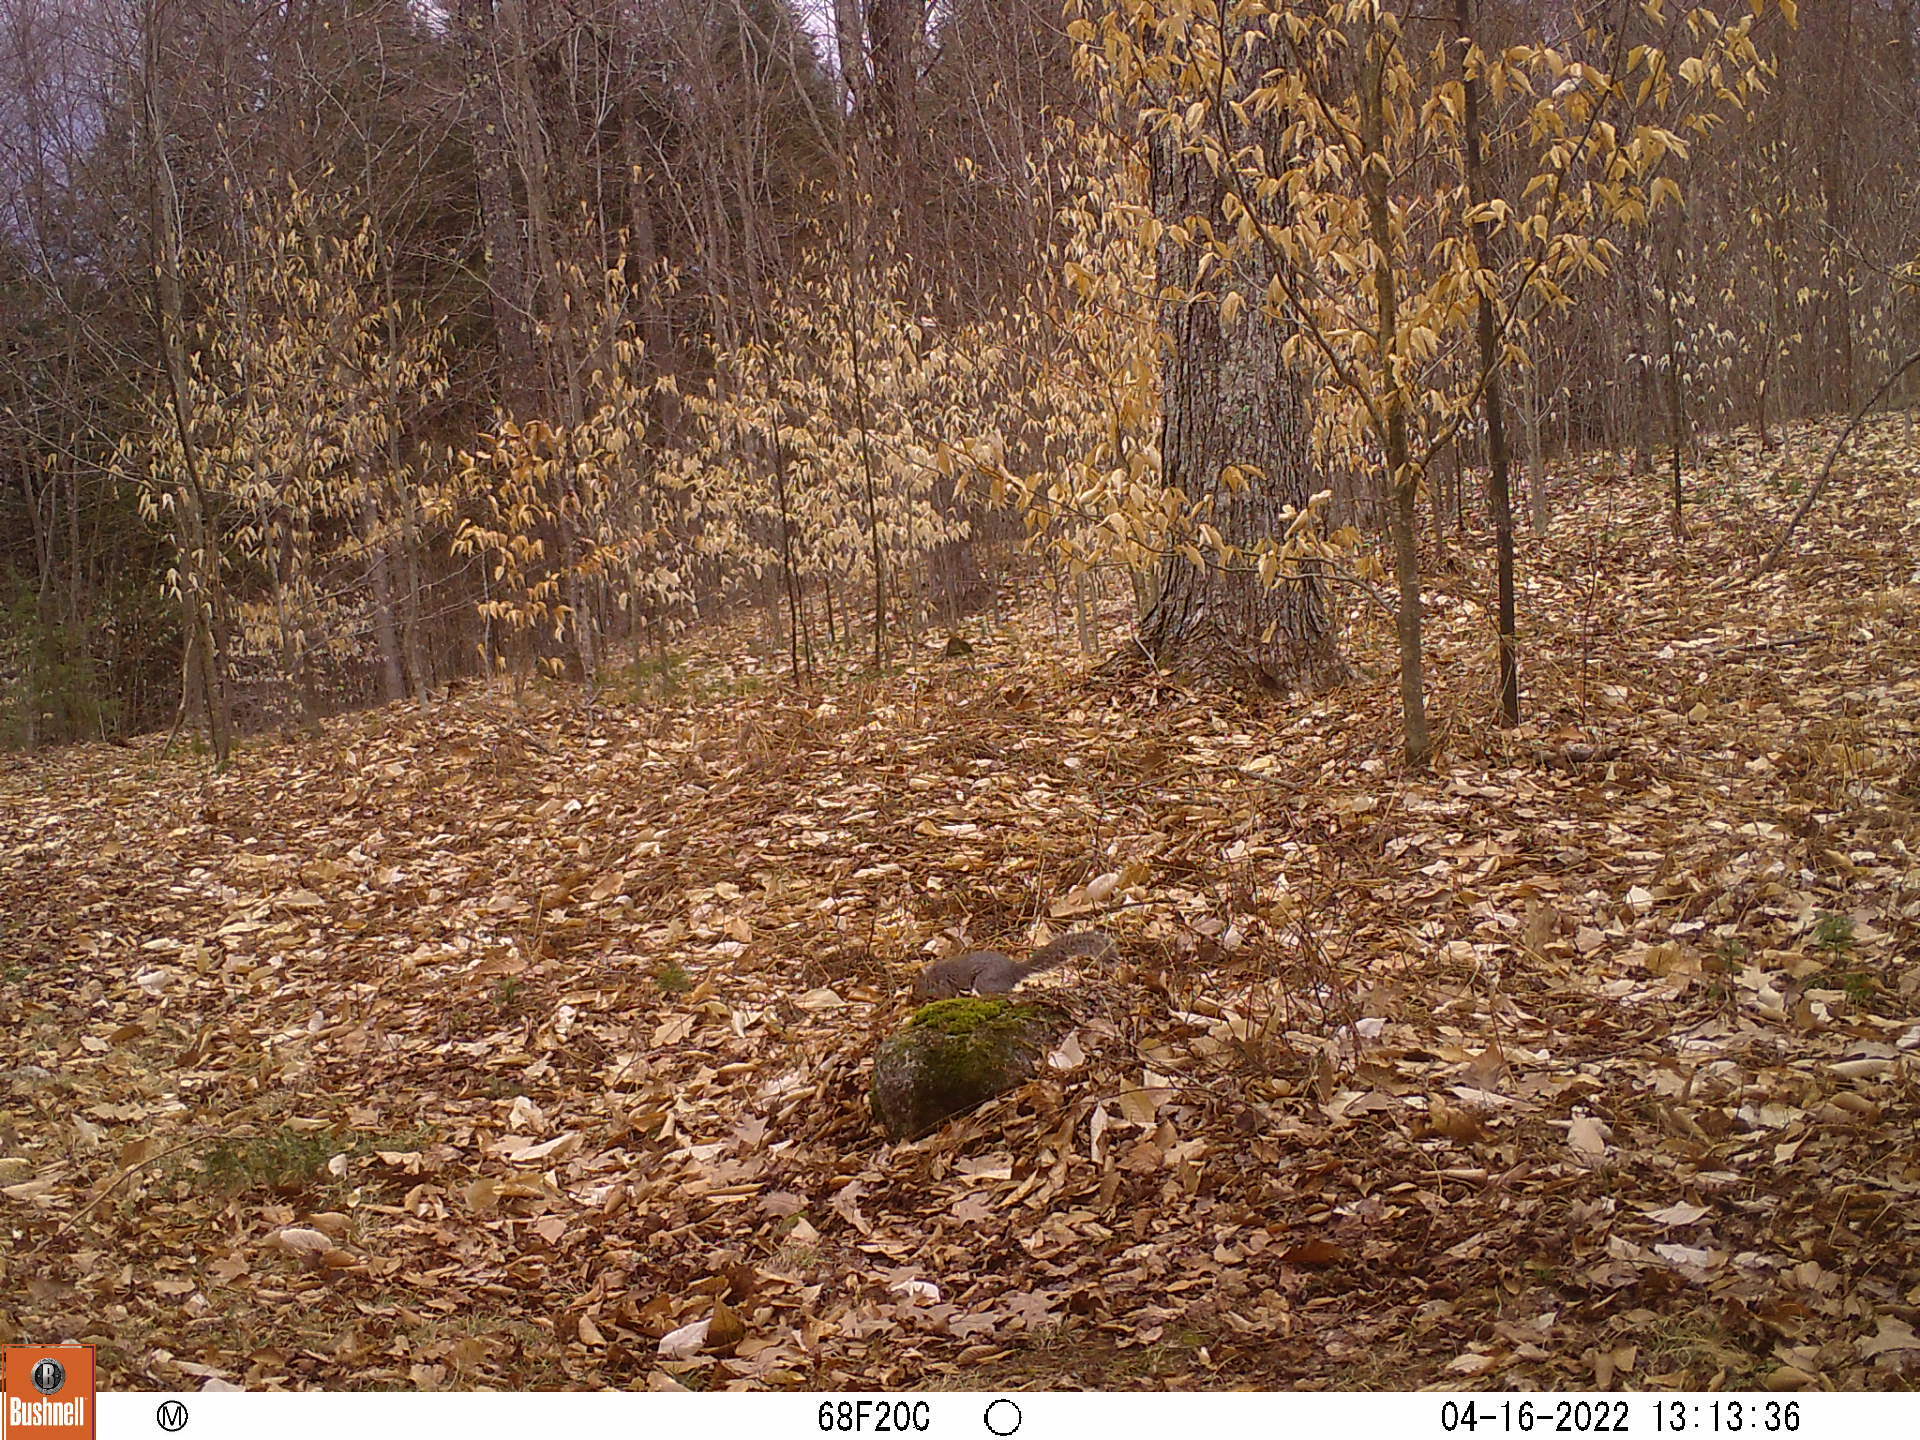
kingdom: Animalia
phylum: Chordata
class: Mammalia
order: Rodentia
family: Sciuridae
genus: Sciurus
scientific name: Sciurus carolinensis
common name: Eastern gray squirrel
